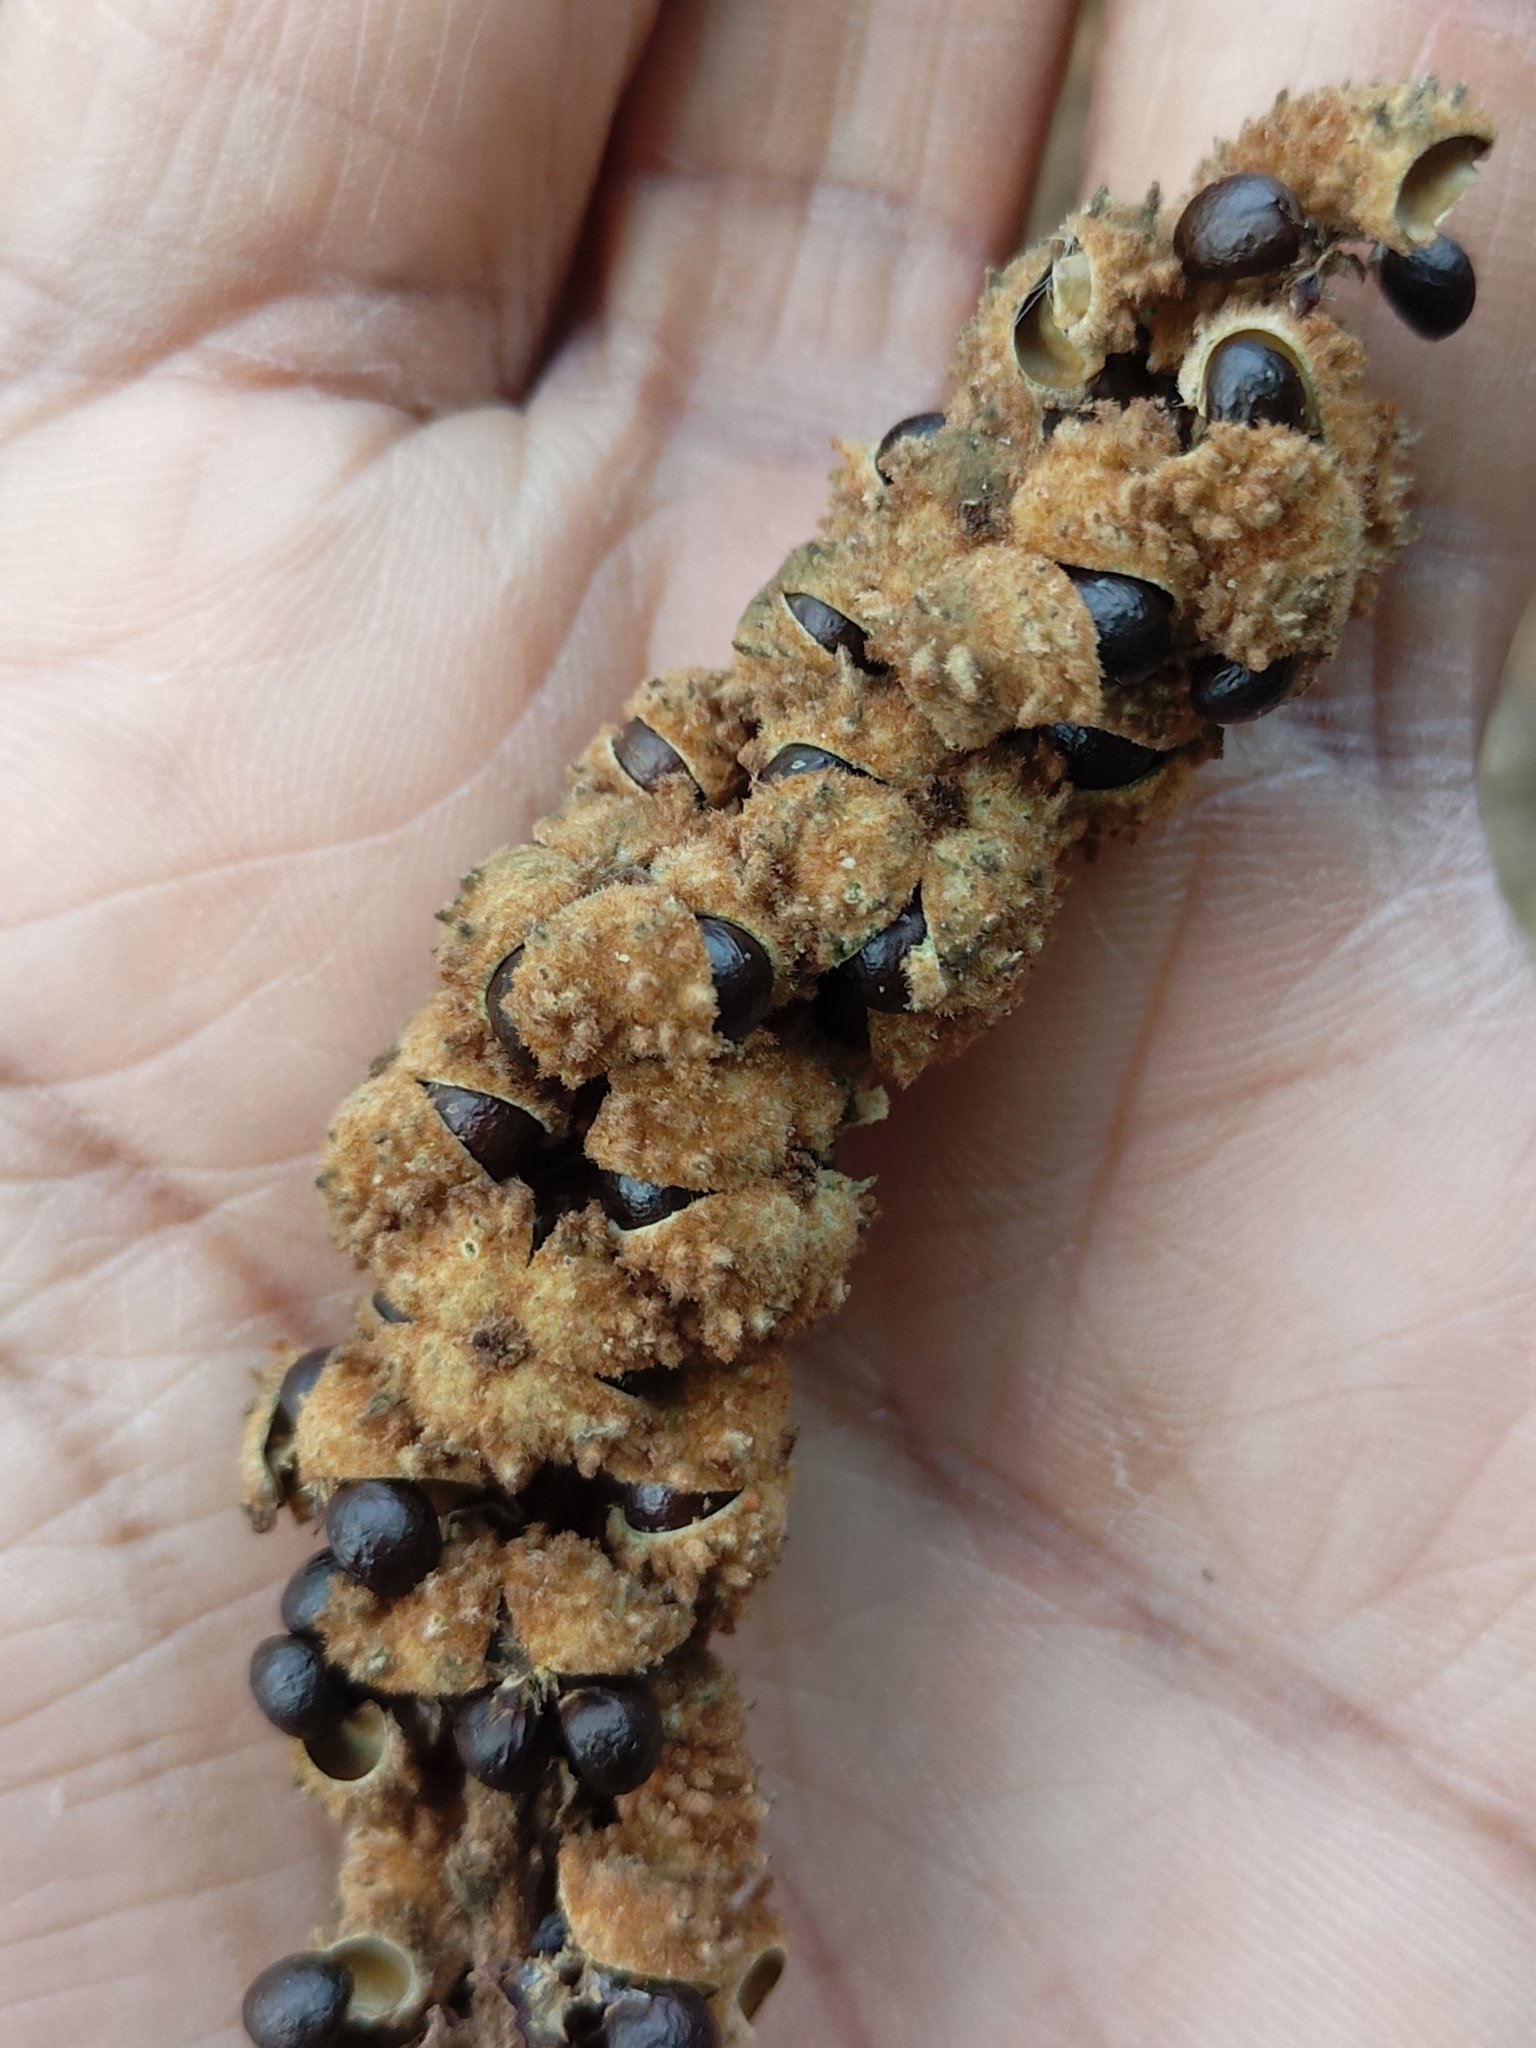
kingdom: Plantae
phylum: Tracheophyta
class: Magnoliopsida
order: Malpighiales
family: Euphorbiaceae
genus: Mallotus
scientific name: Mallotus tetracoccus
